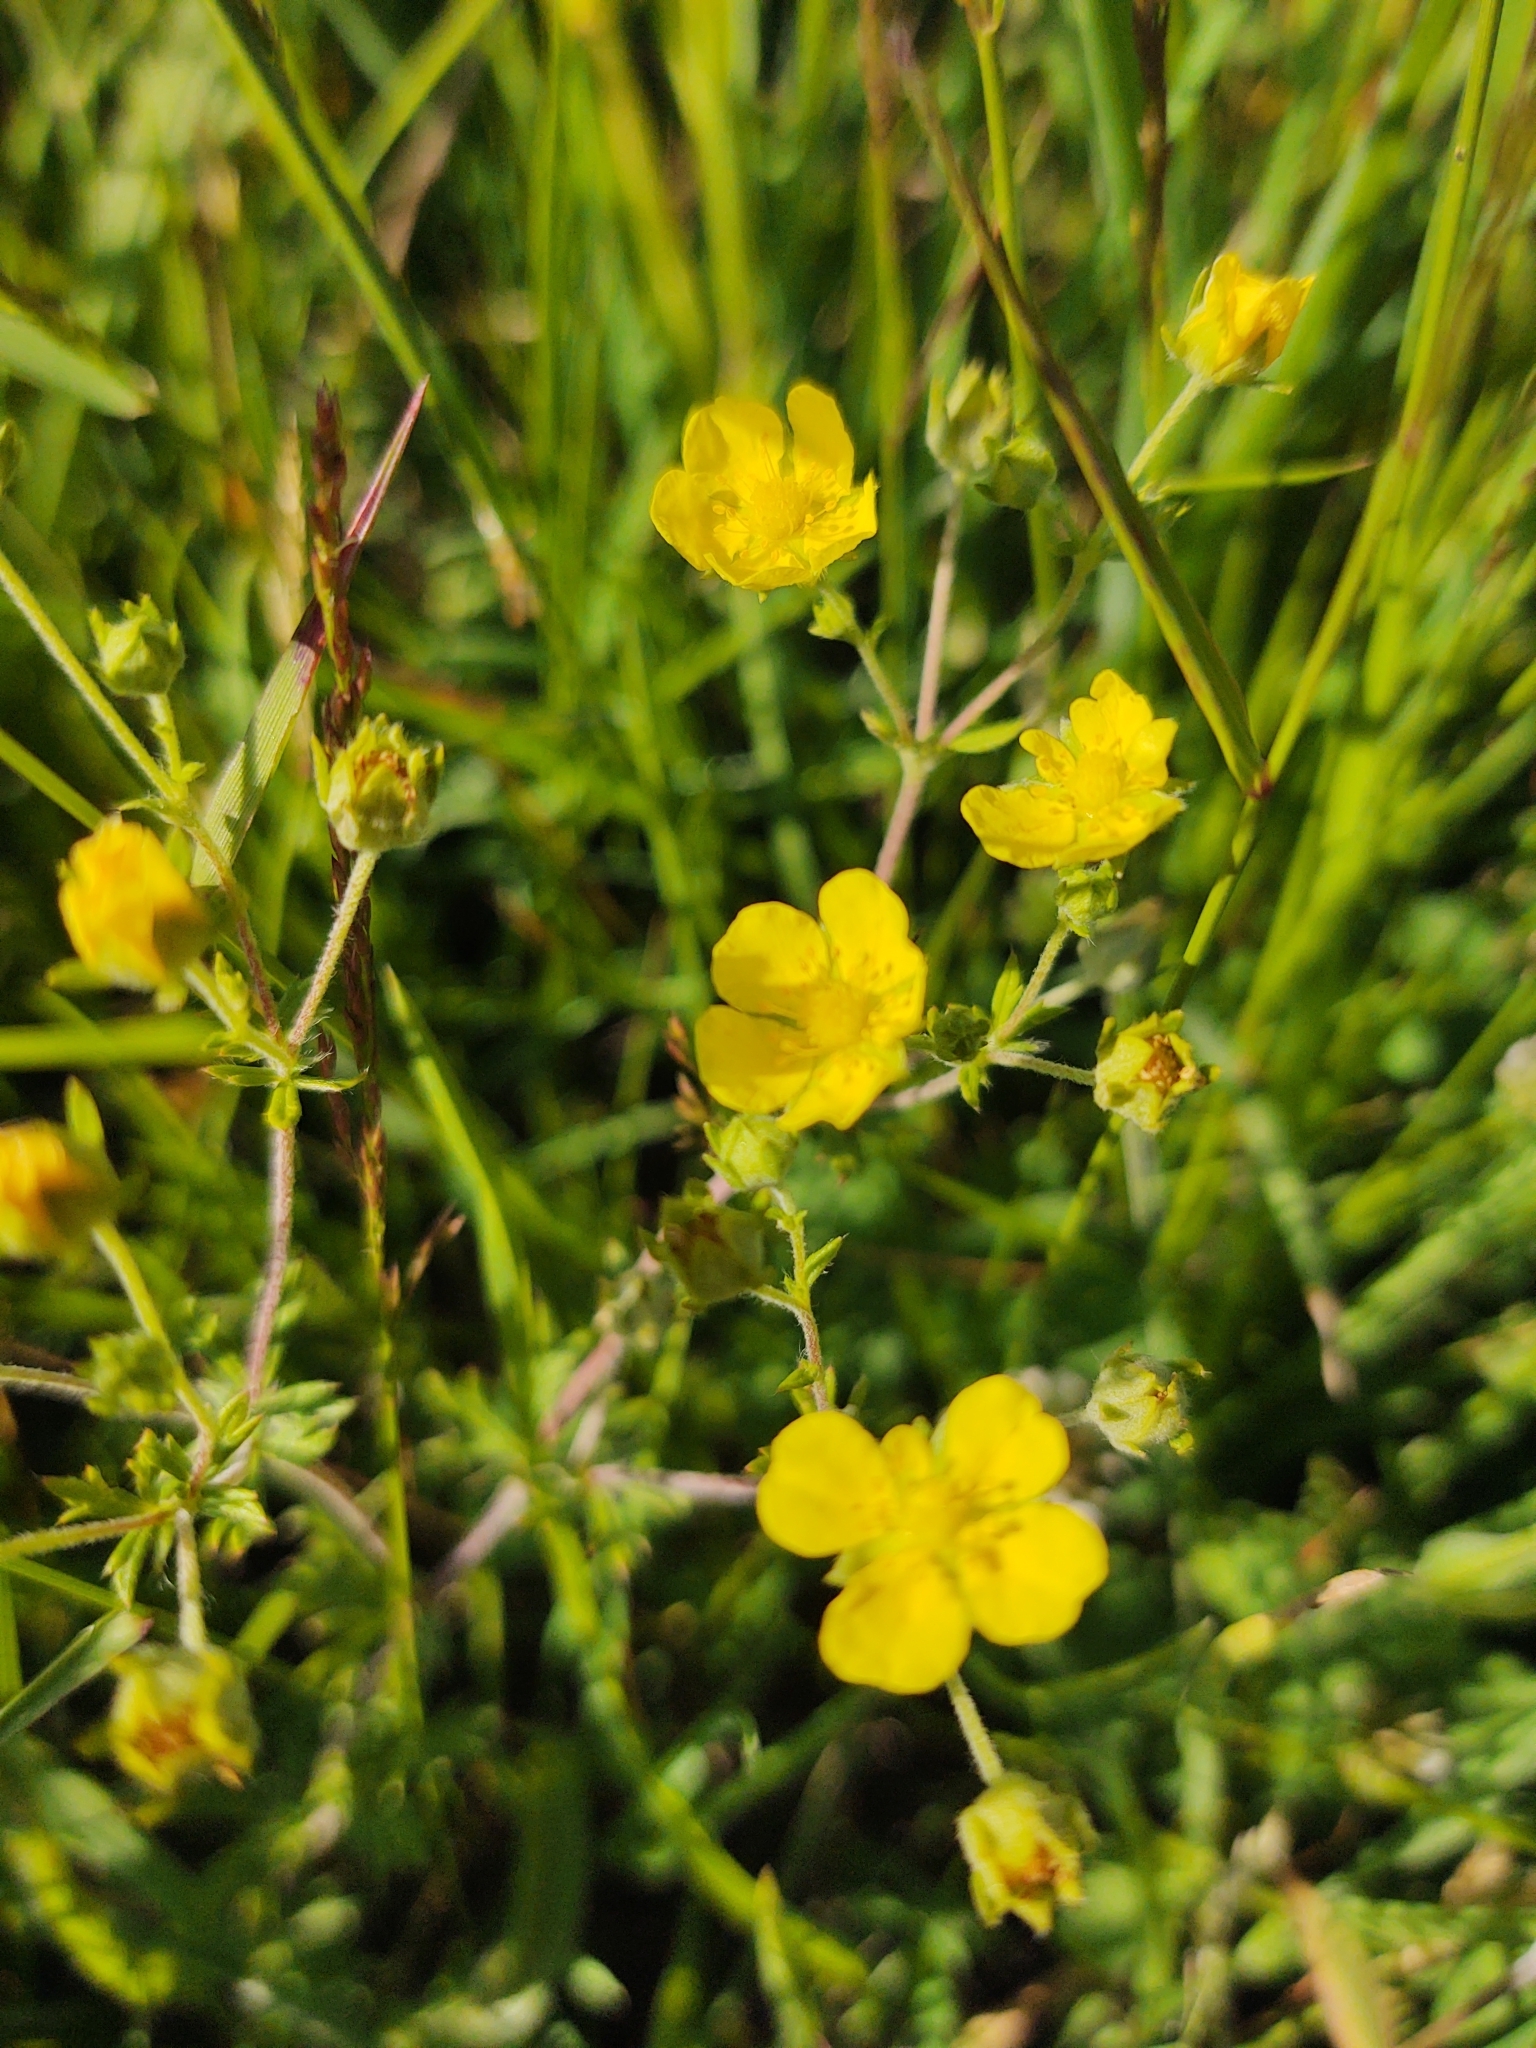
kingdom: Plantae
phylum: Tracheophyta
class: Magnoliopsida
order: Rosales
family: Rosaceae
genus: Potentilla
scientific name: Potentilla erecta
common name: Tormentil
